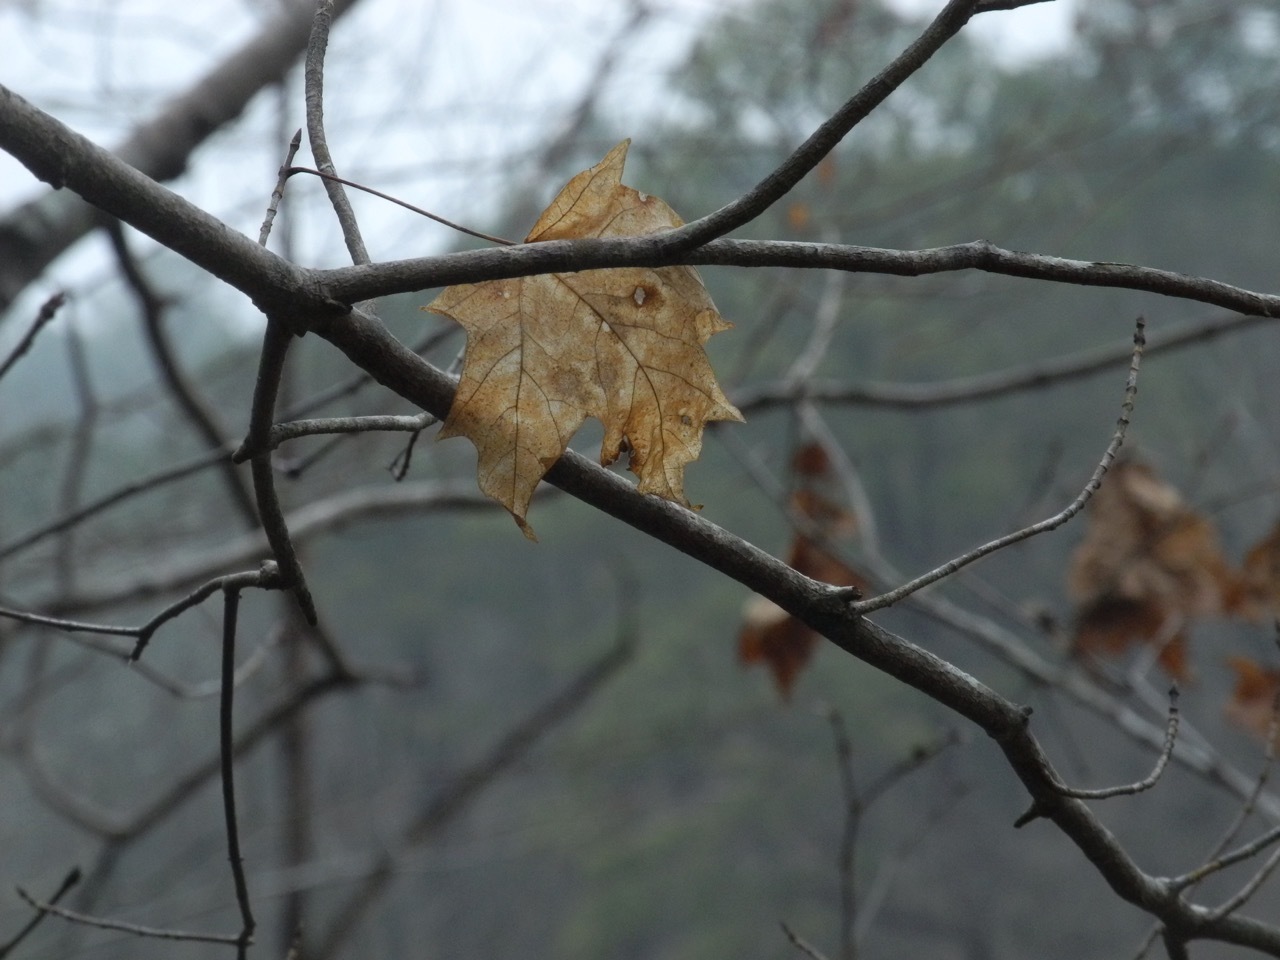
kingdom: Plantae
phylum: Tracheophyta
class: Magnoliopsida
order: Sapindales
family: Sapindaceae
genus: Acer
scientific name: Acer floridanum
